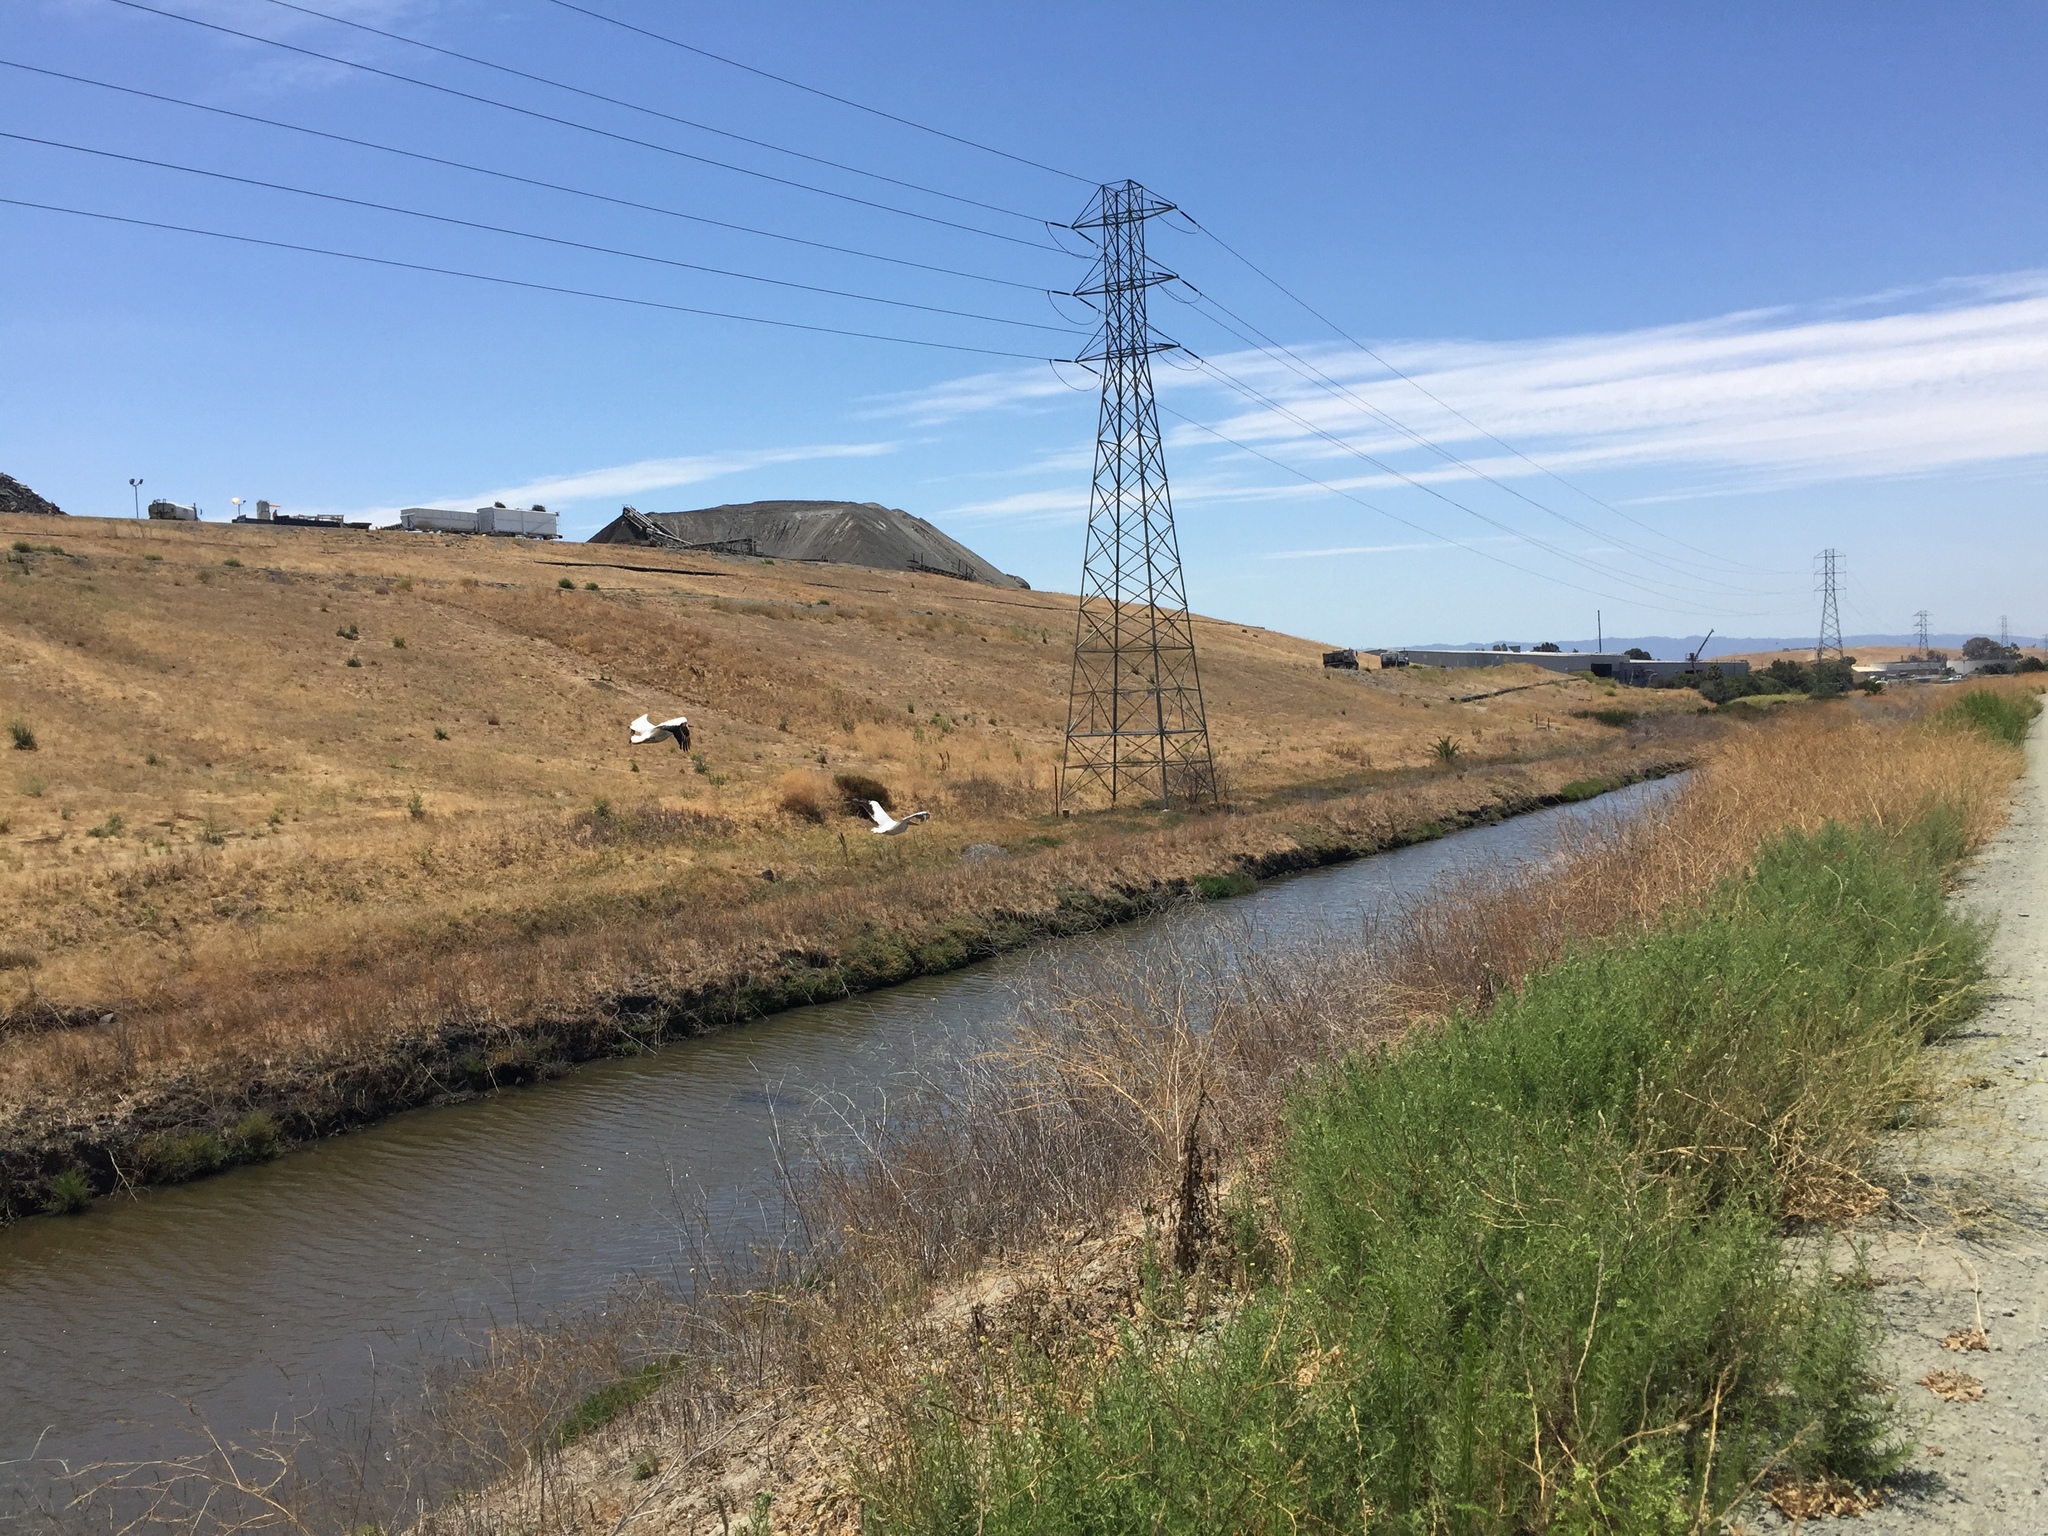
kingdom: Animalia
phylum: Chordata
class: Aves
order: Pelecaniformes
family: Pelecanidae
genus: Pelecanus
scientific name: Pelecanus erythrorhynchos
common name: American white pelican
